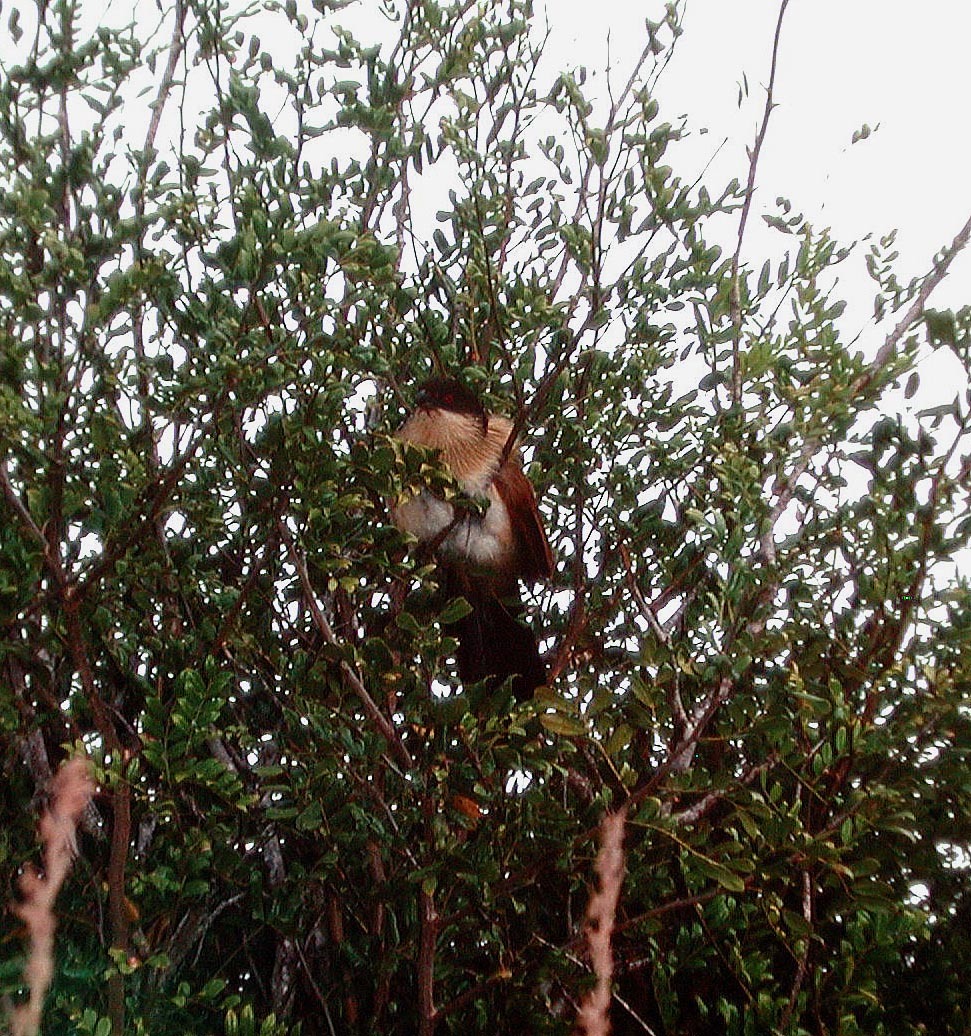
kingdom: Animalia
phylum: Chordata
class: Aves
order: Cuculiformes
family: Cuculidae
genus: Centropus
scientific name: Centropus superciliosus
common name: White-browed coucal
